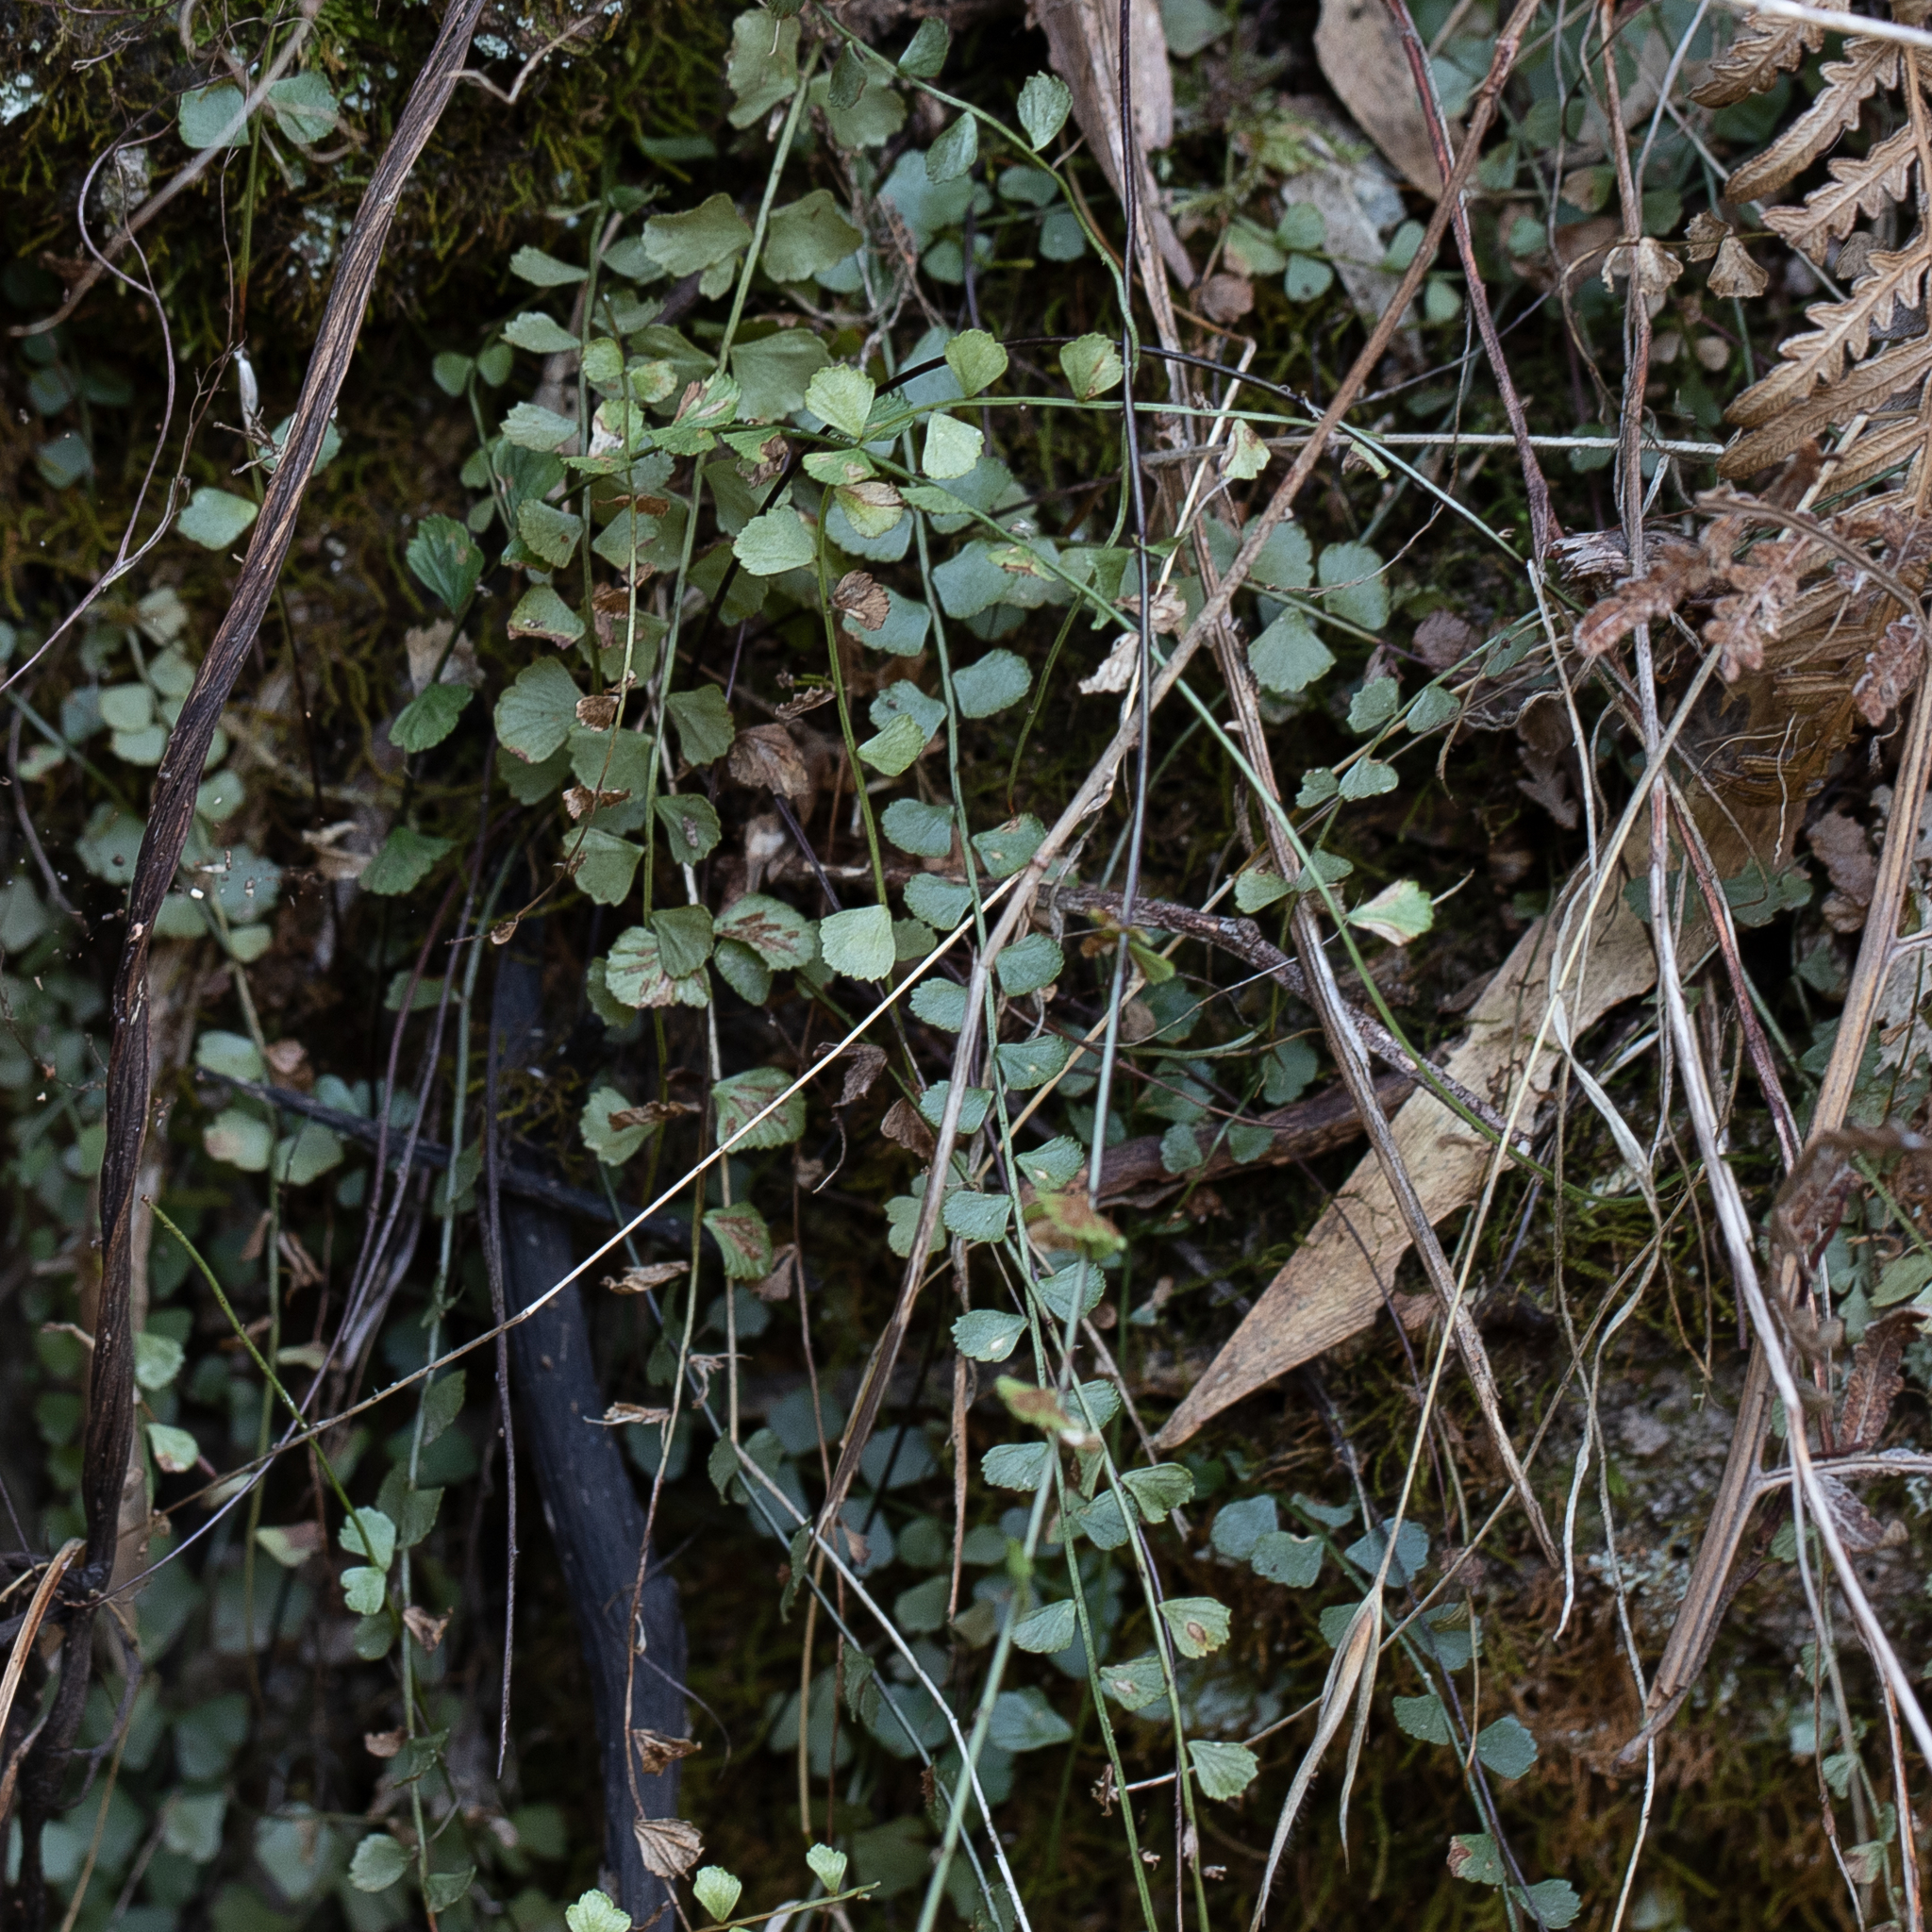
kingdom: Plantae
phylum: Tracheophyta
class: Polypodiopsida
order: Polypodiales
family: Aspleniaceae
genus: Asplenium
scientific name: Asplenium flabellifolium
